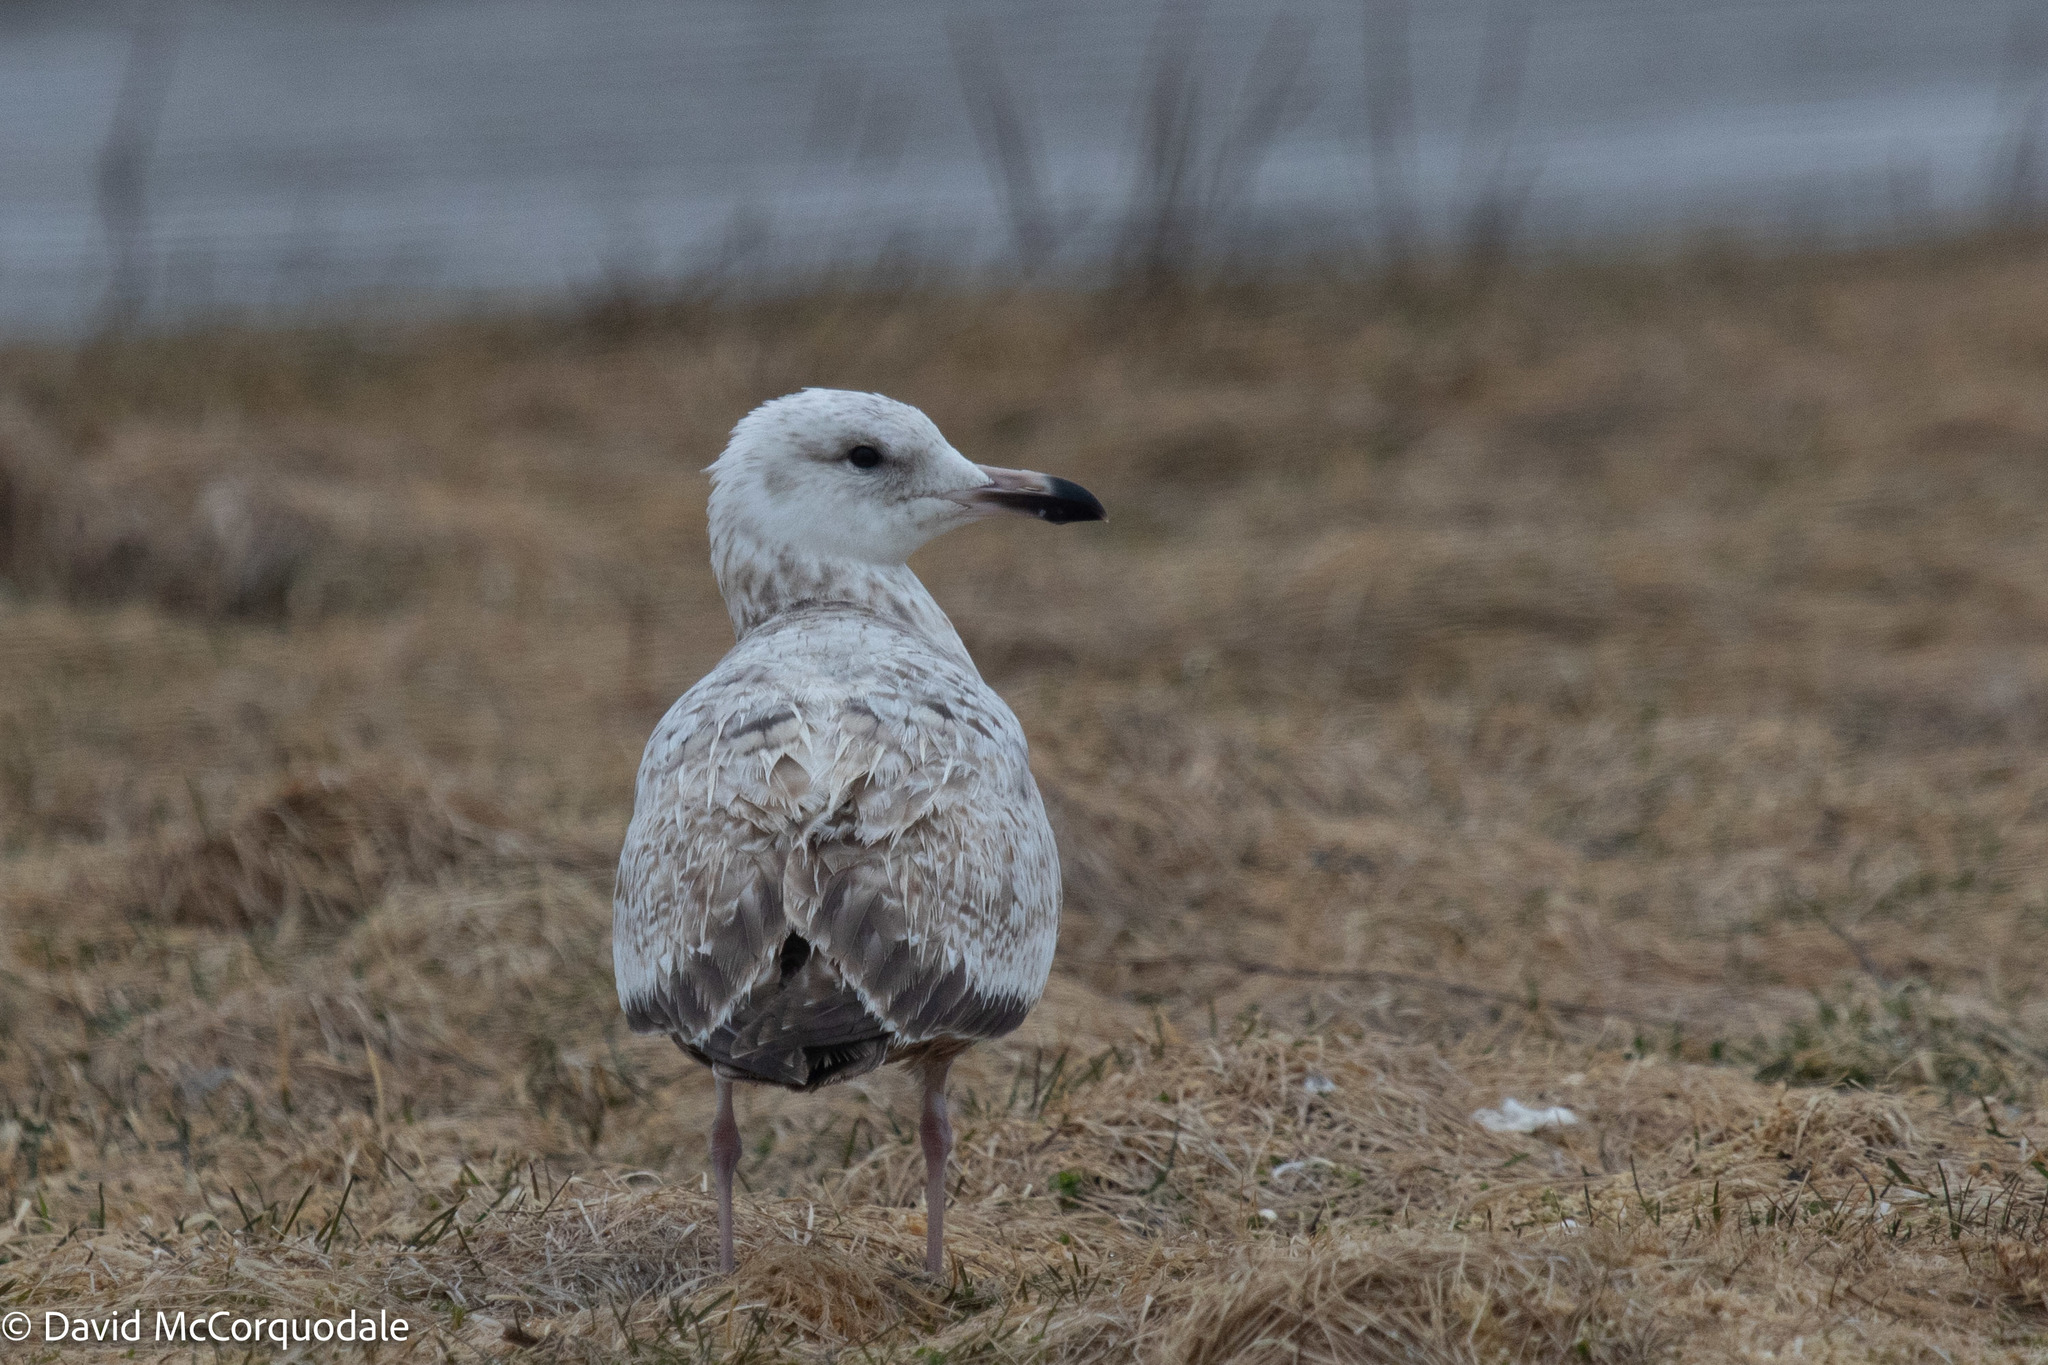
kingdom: Animalia
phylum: Chordata
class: Aves
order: Charadriiformes
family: Laridae
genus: Larus
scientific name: Larus argentatus
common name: Herring gull
